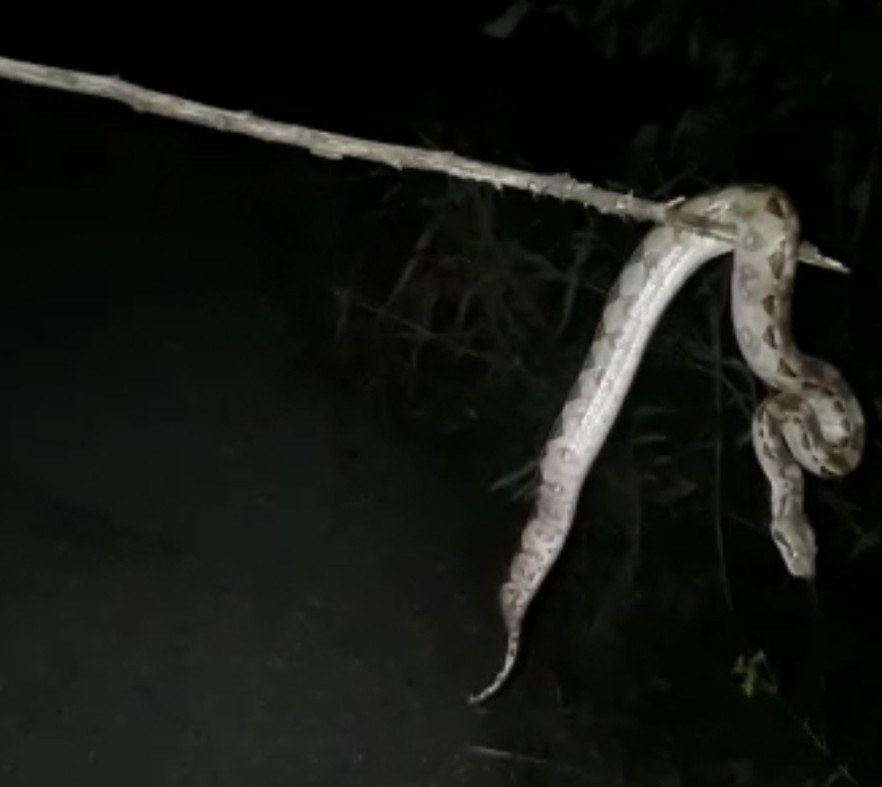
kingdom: Animalia
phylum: Chordata
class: Squamata
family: Boidae
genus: Boa
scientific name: Boa imperator
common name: Central american boa
